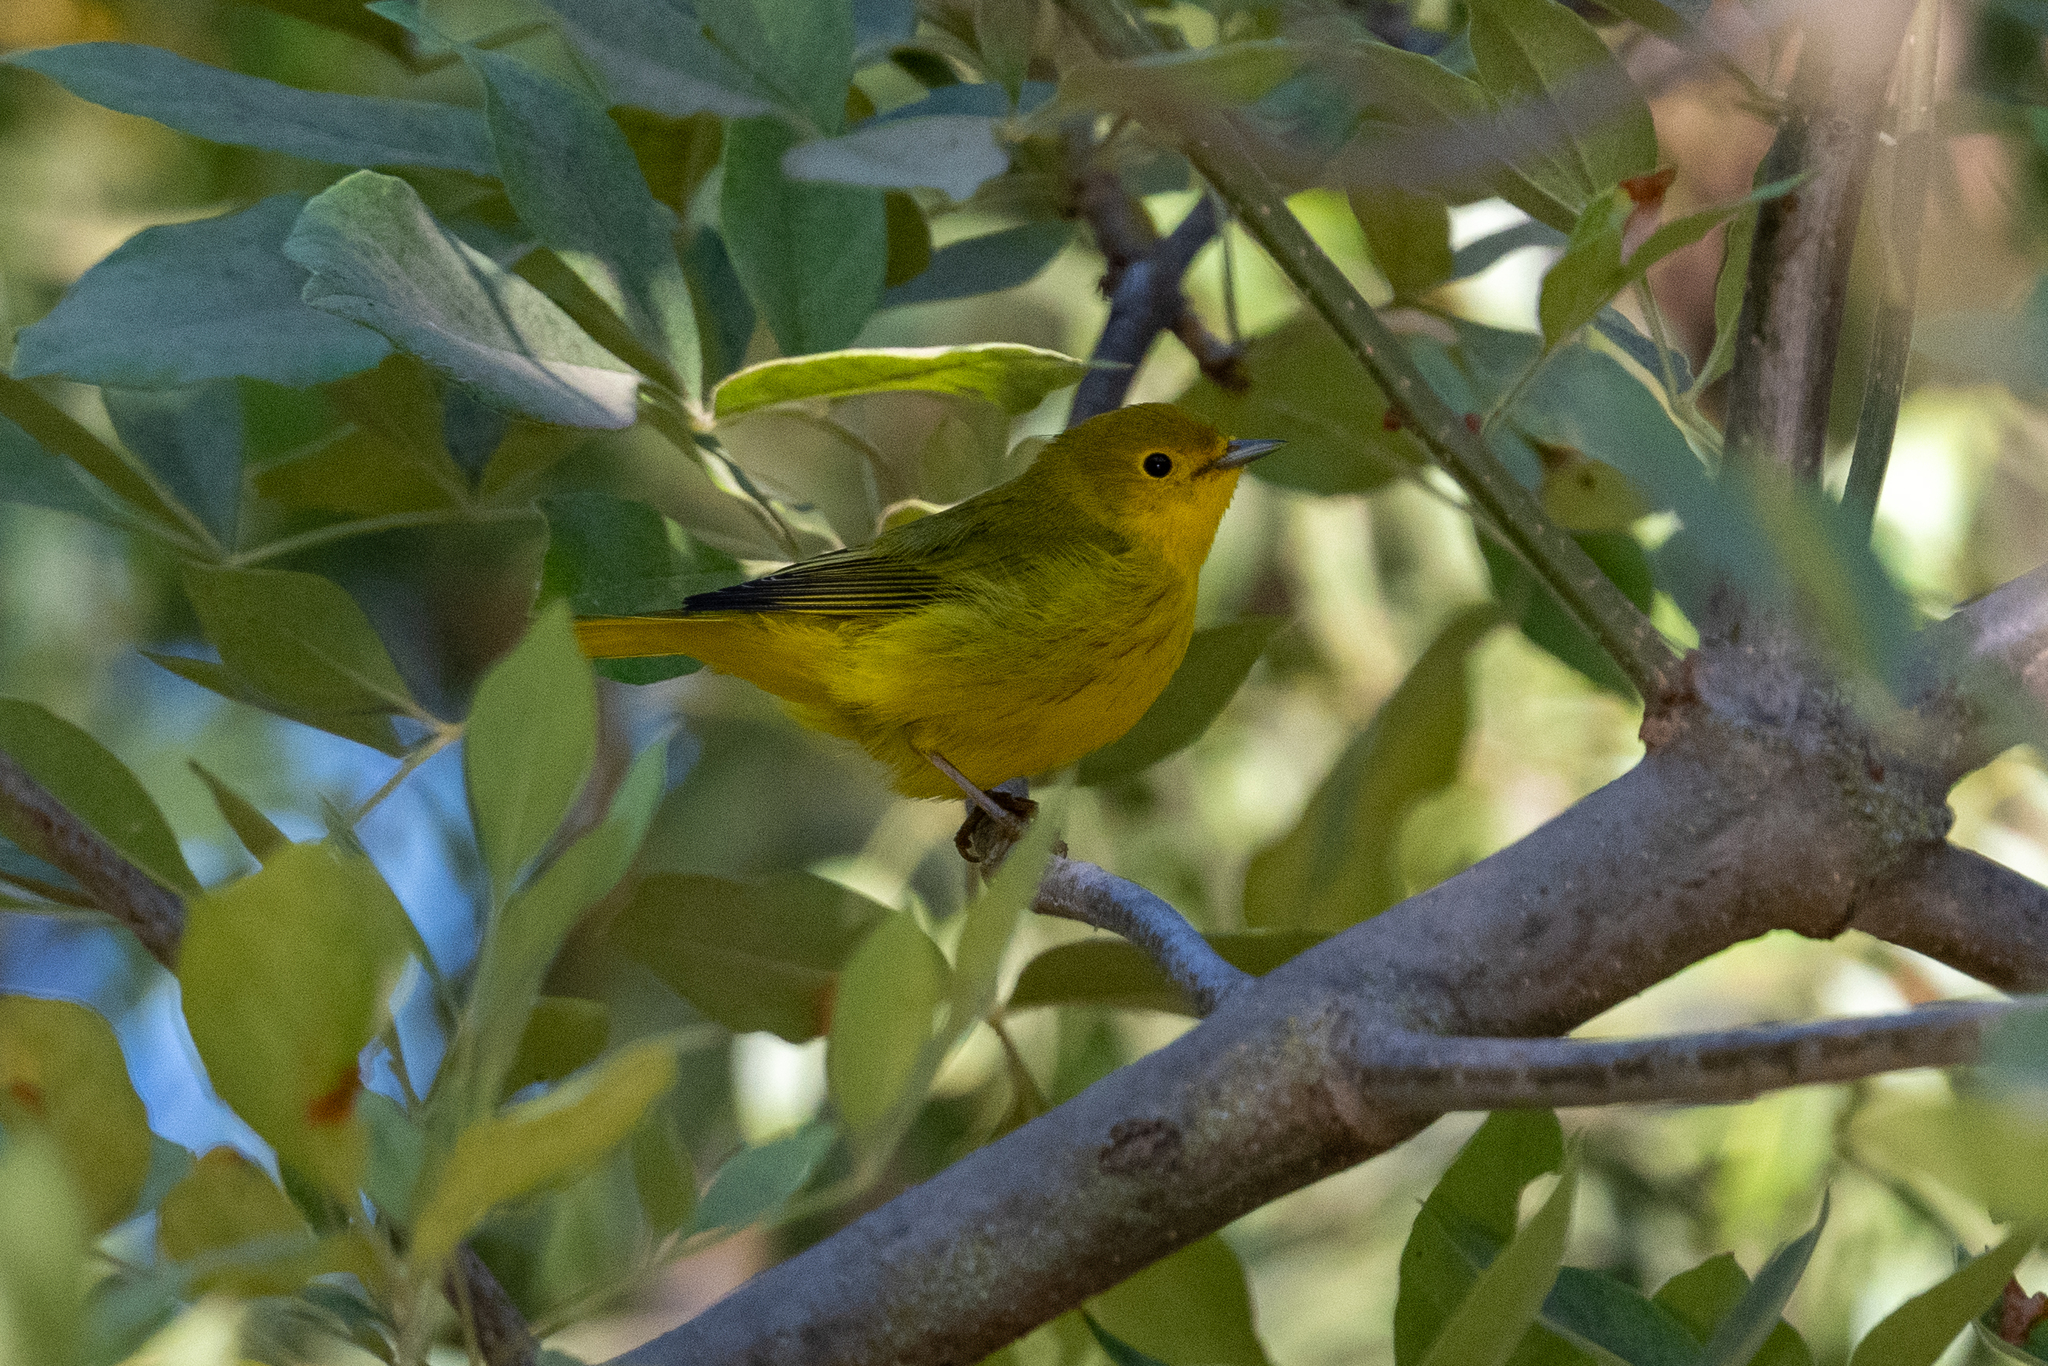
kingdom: Animalia
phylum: Chordata
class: Aves
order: Passeriformes
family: Parulidae
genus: Setophaga
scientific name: Setophaga petechia
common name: Yellow warbler
